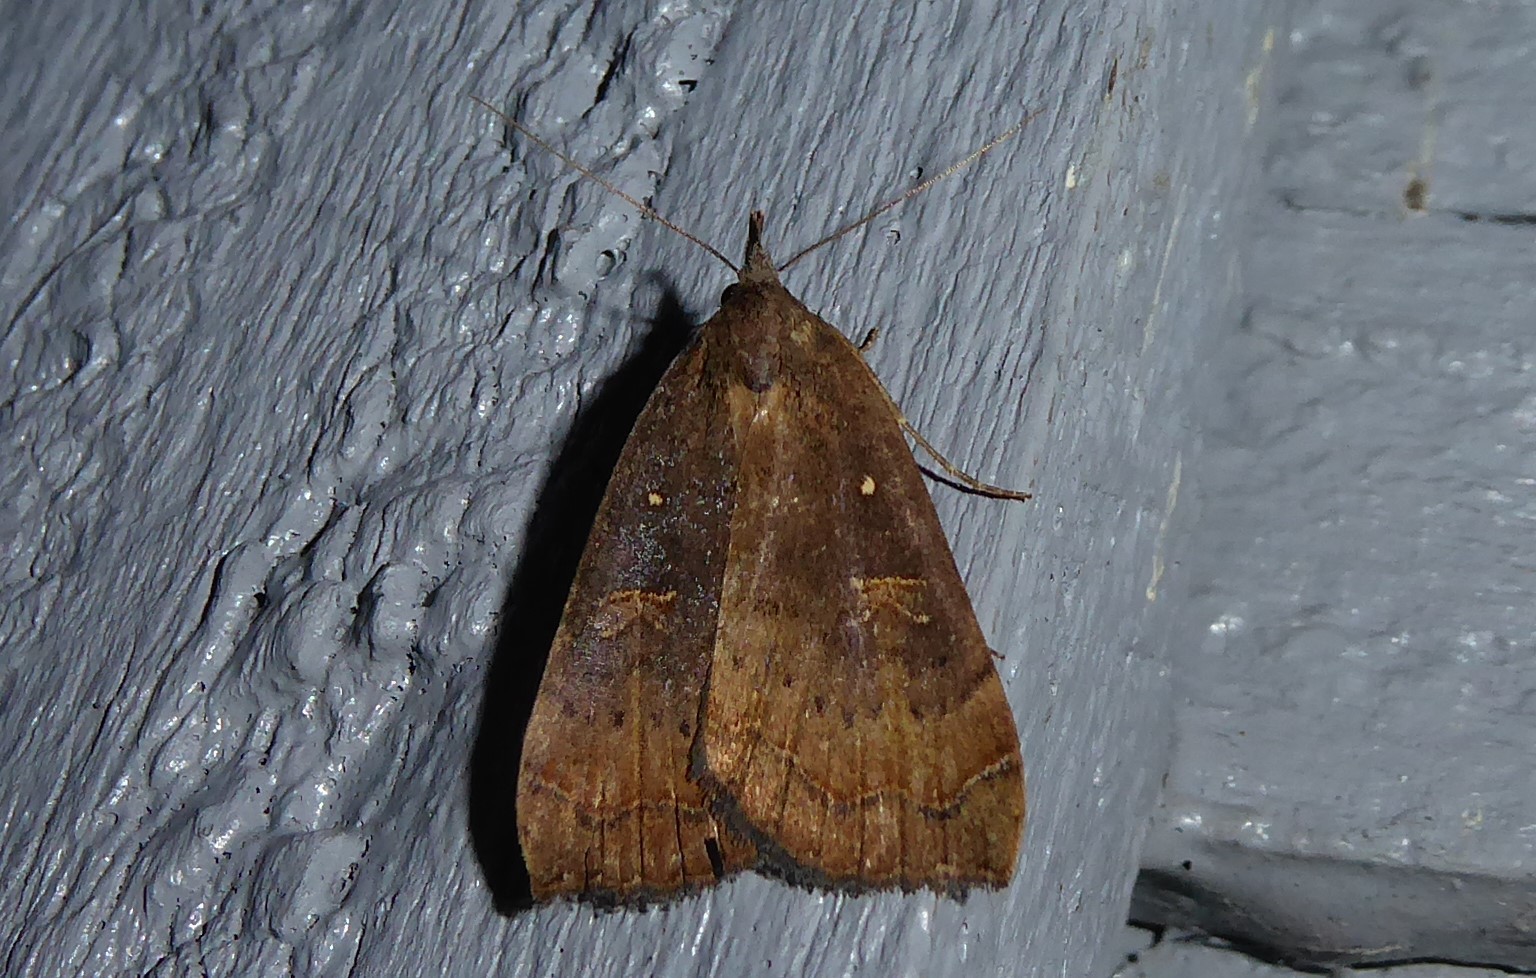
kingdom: Animalia
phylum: Arthropoda
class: Insecta
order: Lepidoptera
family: Erebidae
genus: Rhapsa
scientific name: Rhapsa scotosialis
